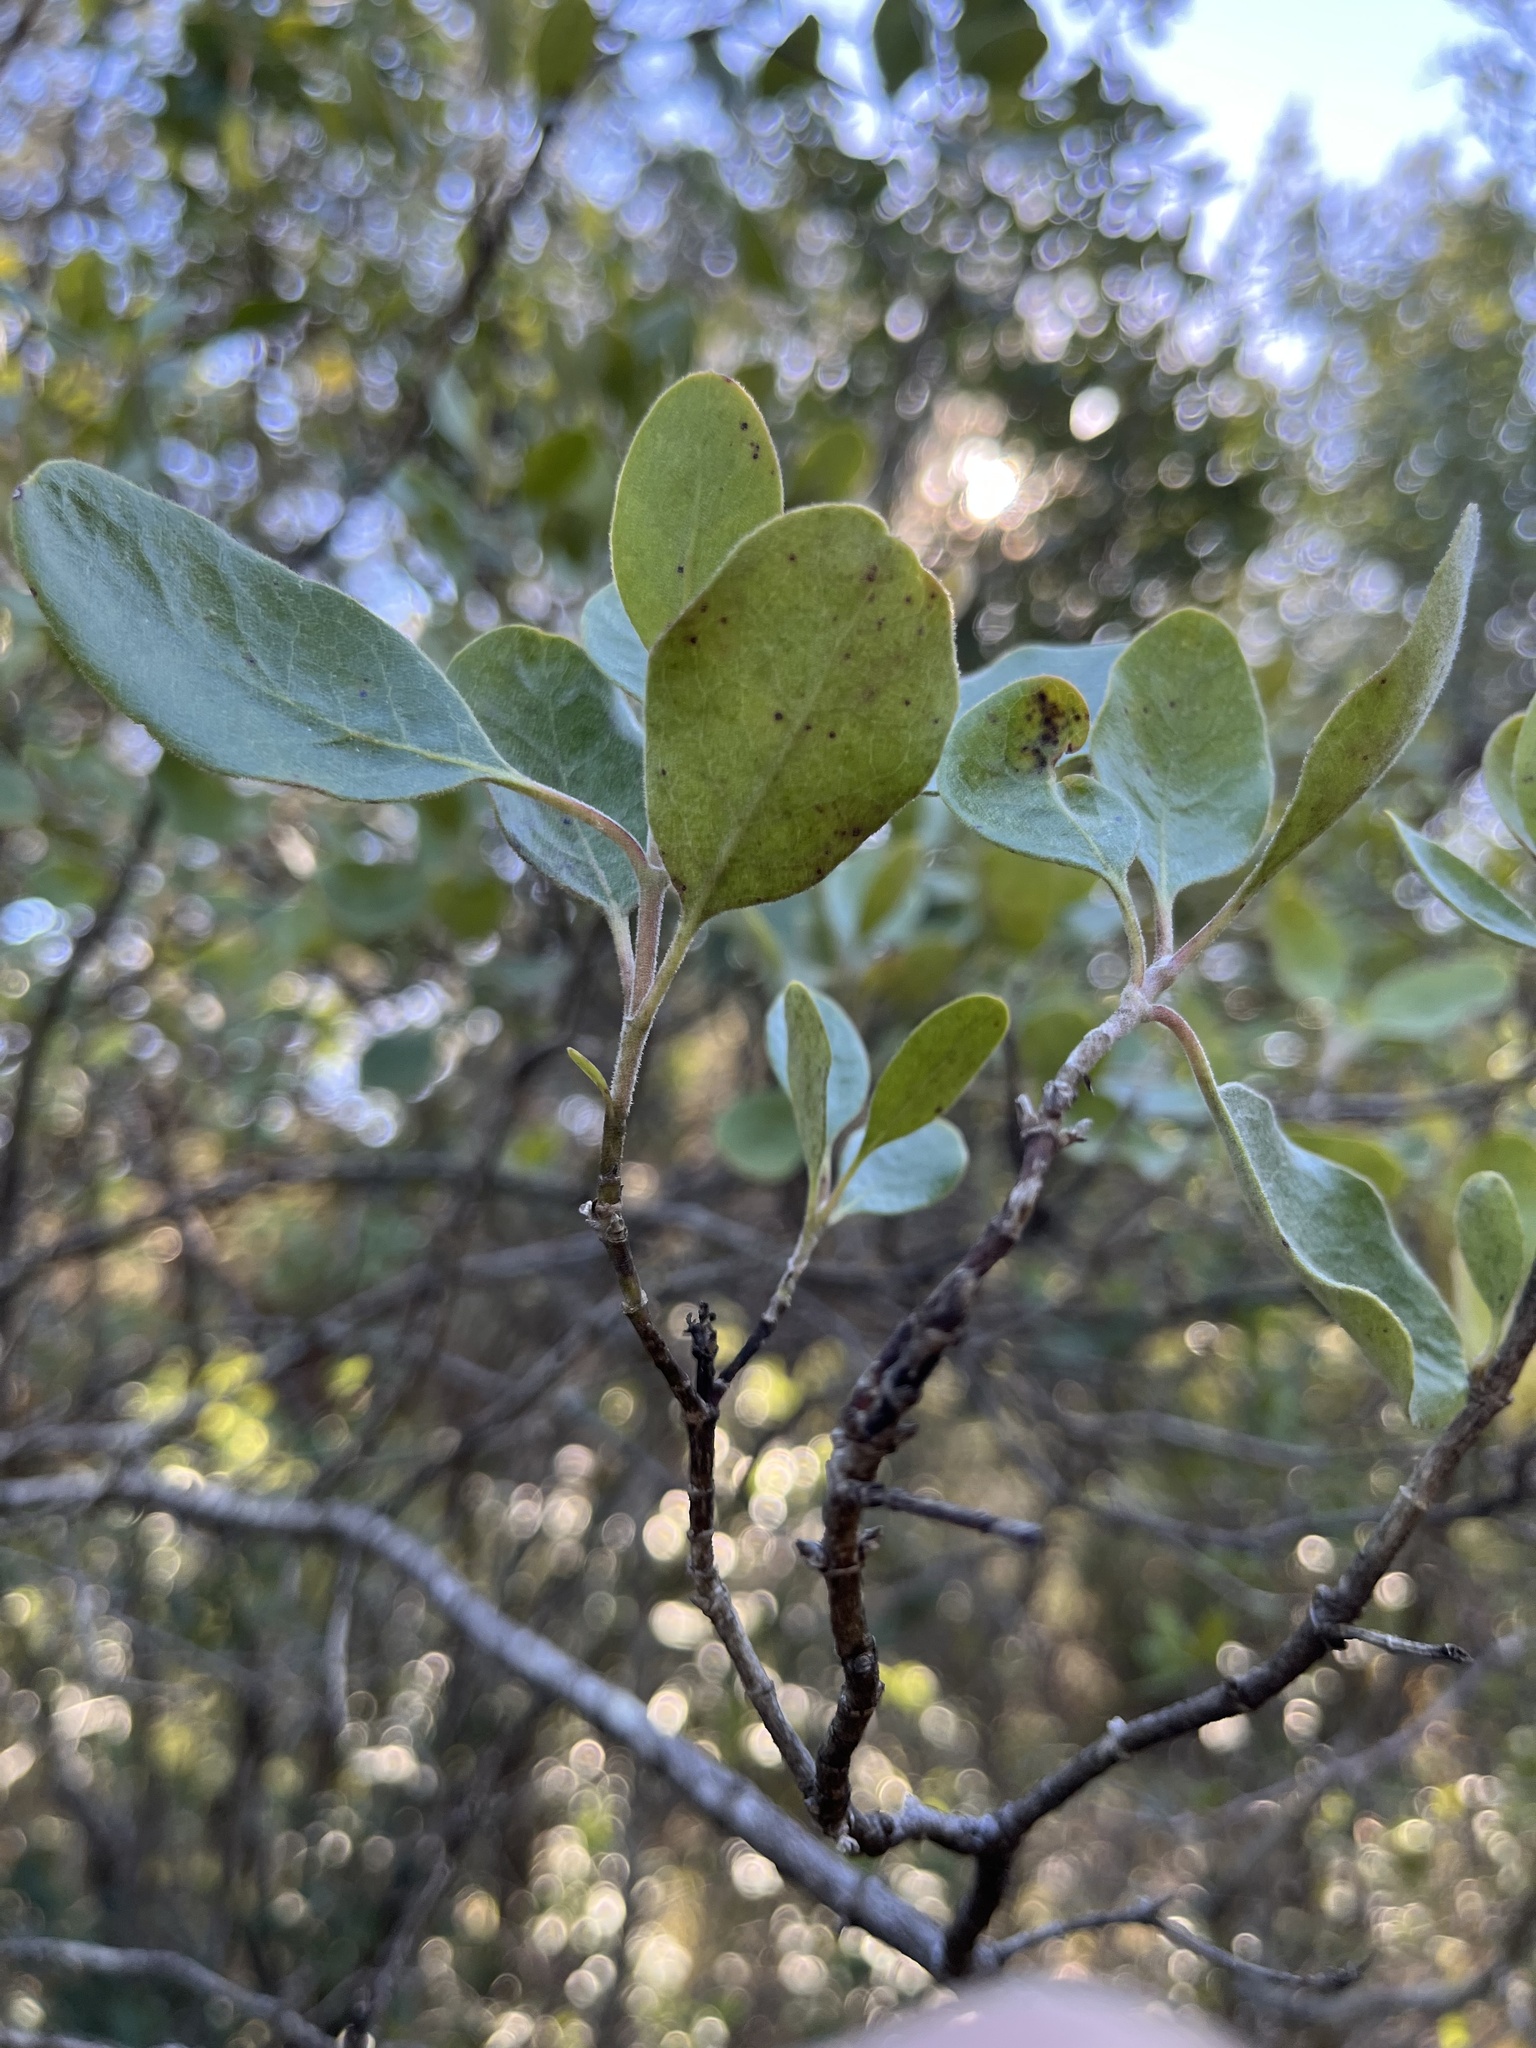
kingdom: Plantae
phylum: Tracheophyta
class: Magnoliopsida
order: Garryales
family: Garryaceae
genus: Garrya
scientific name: Garrya lindheimeri
